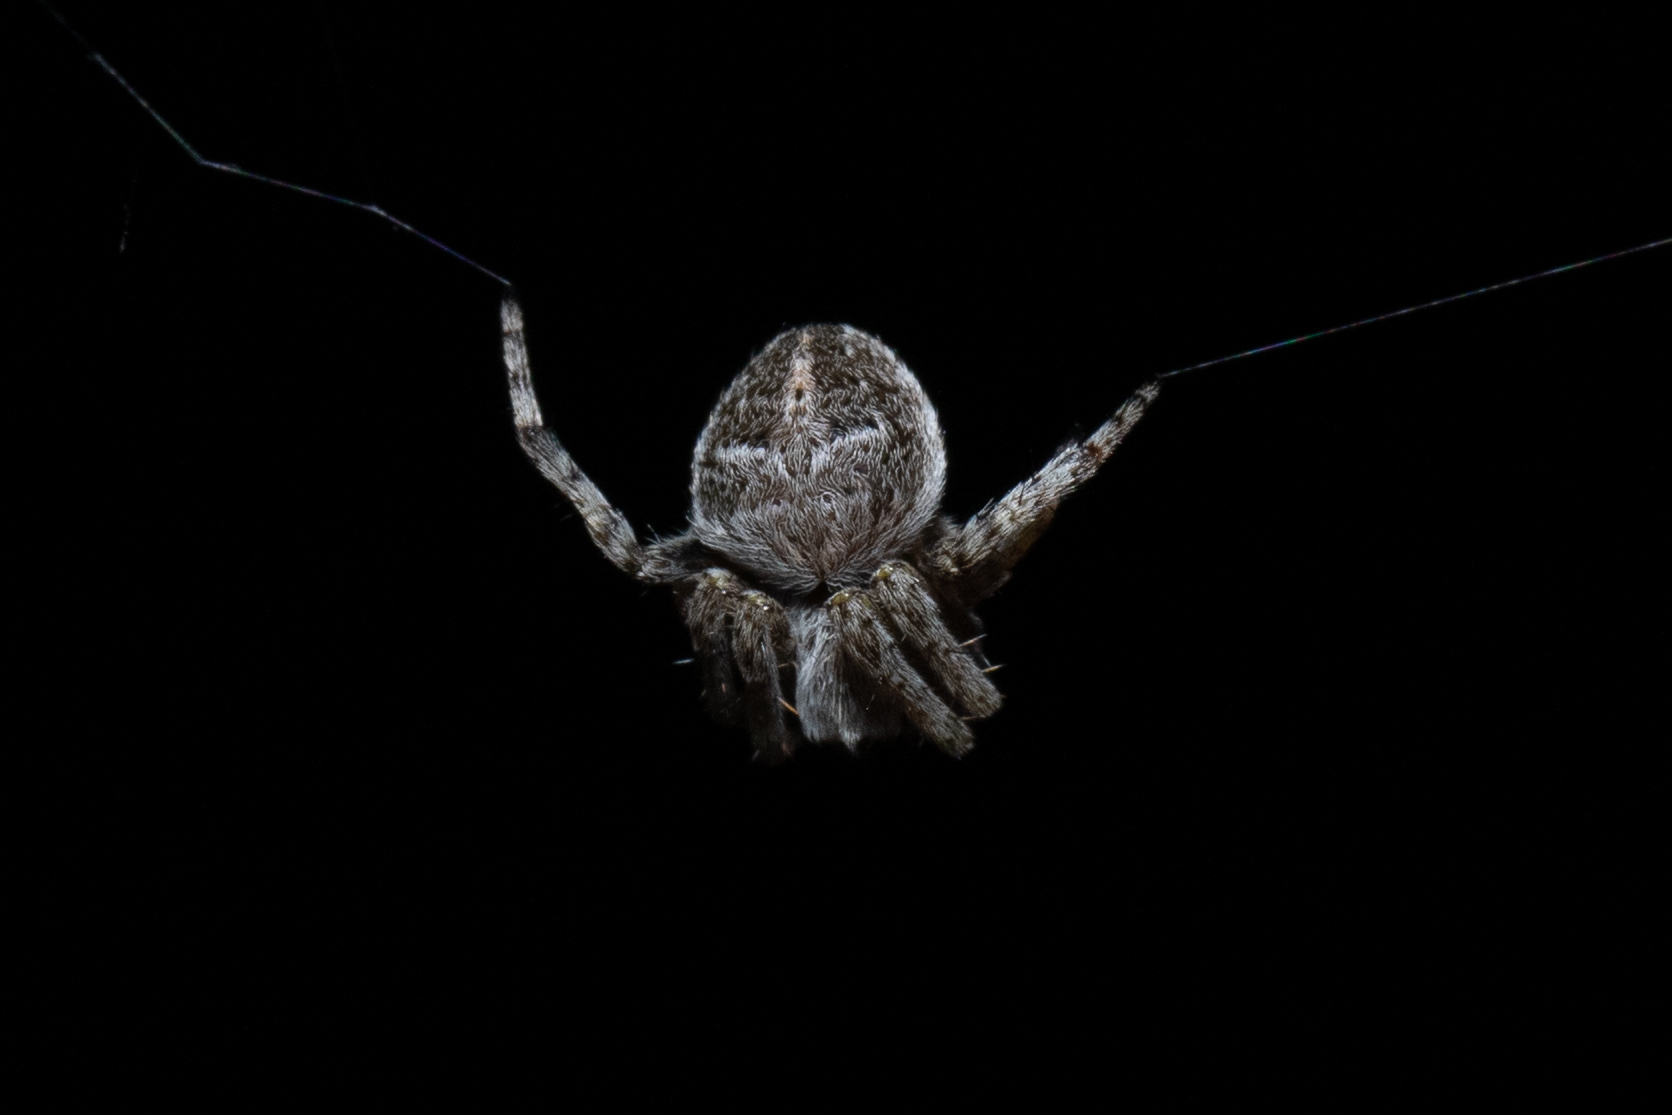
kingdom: Animalia
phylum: Arthropoda
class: Arachnida
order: Araneae
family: Araneidae
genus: Agalenatea
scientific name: Agalenatea redii
